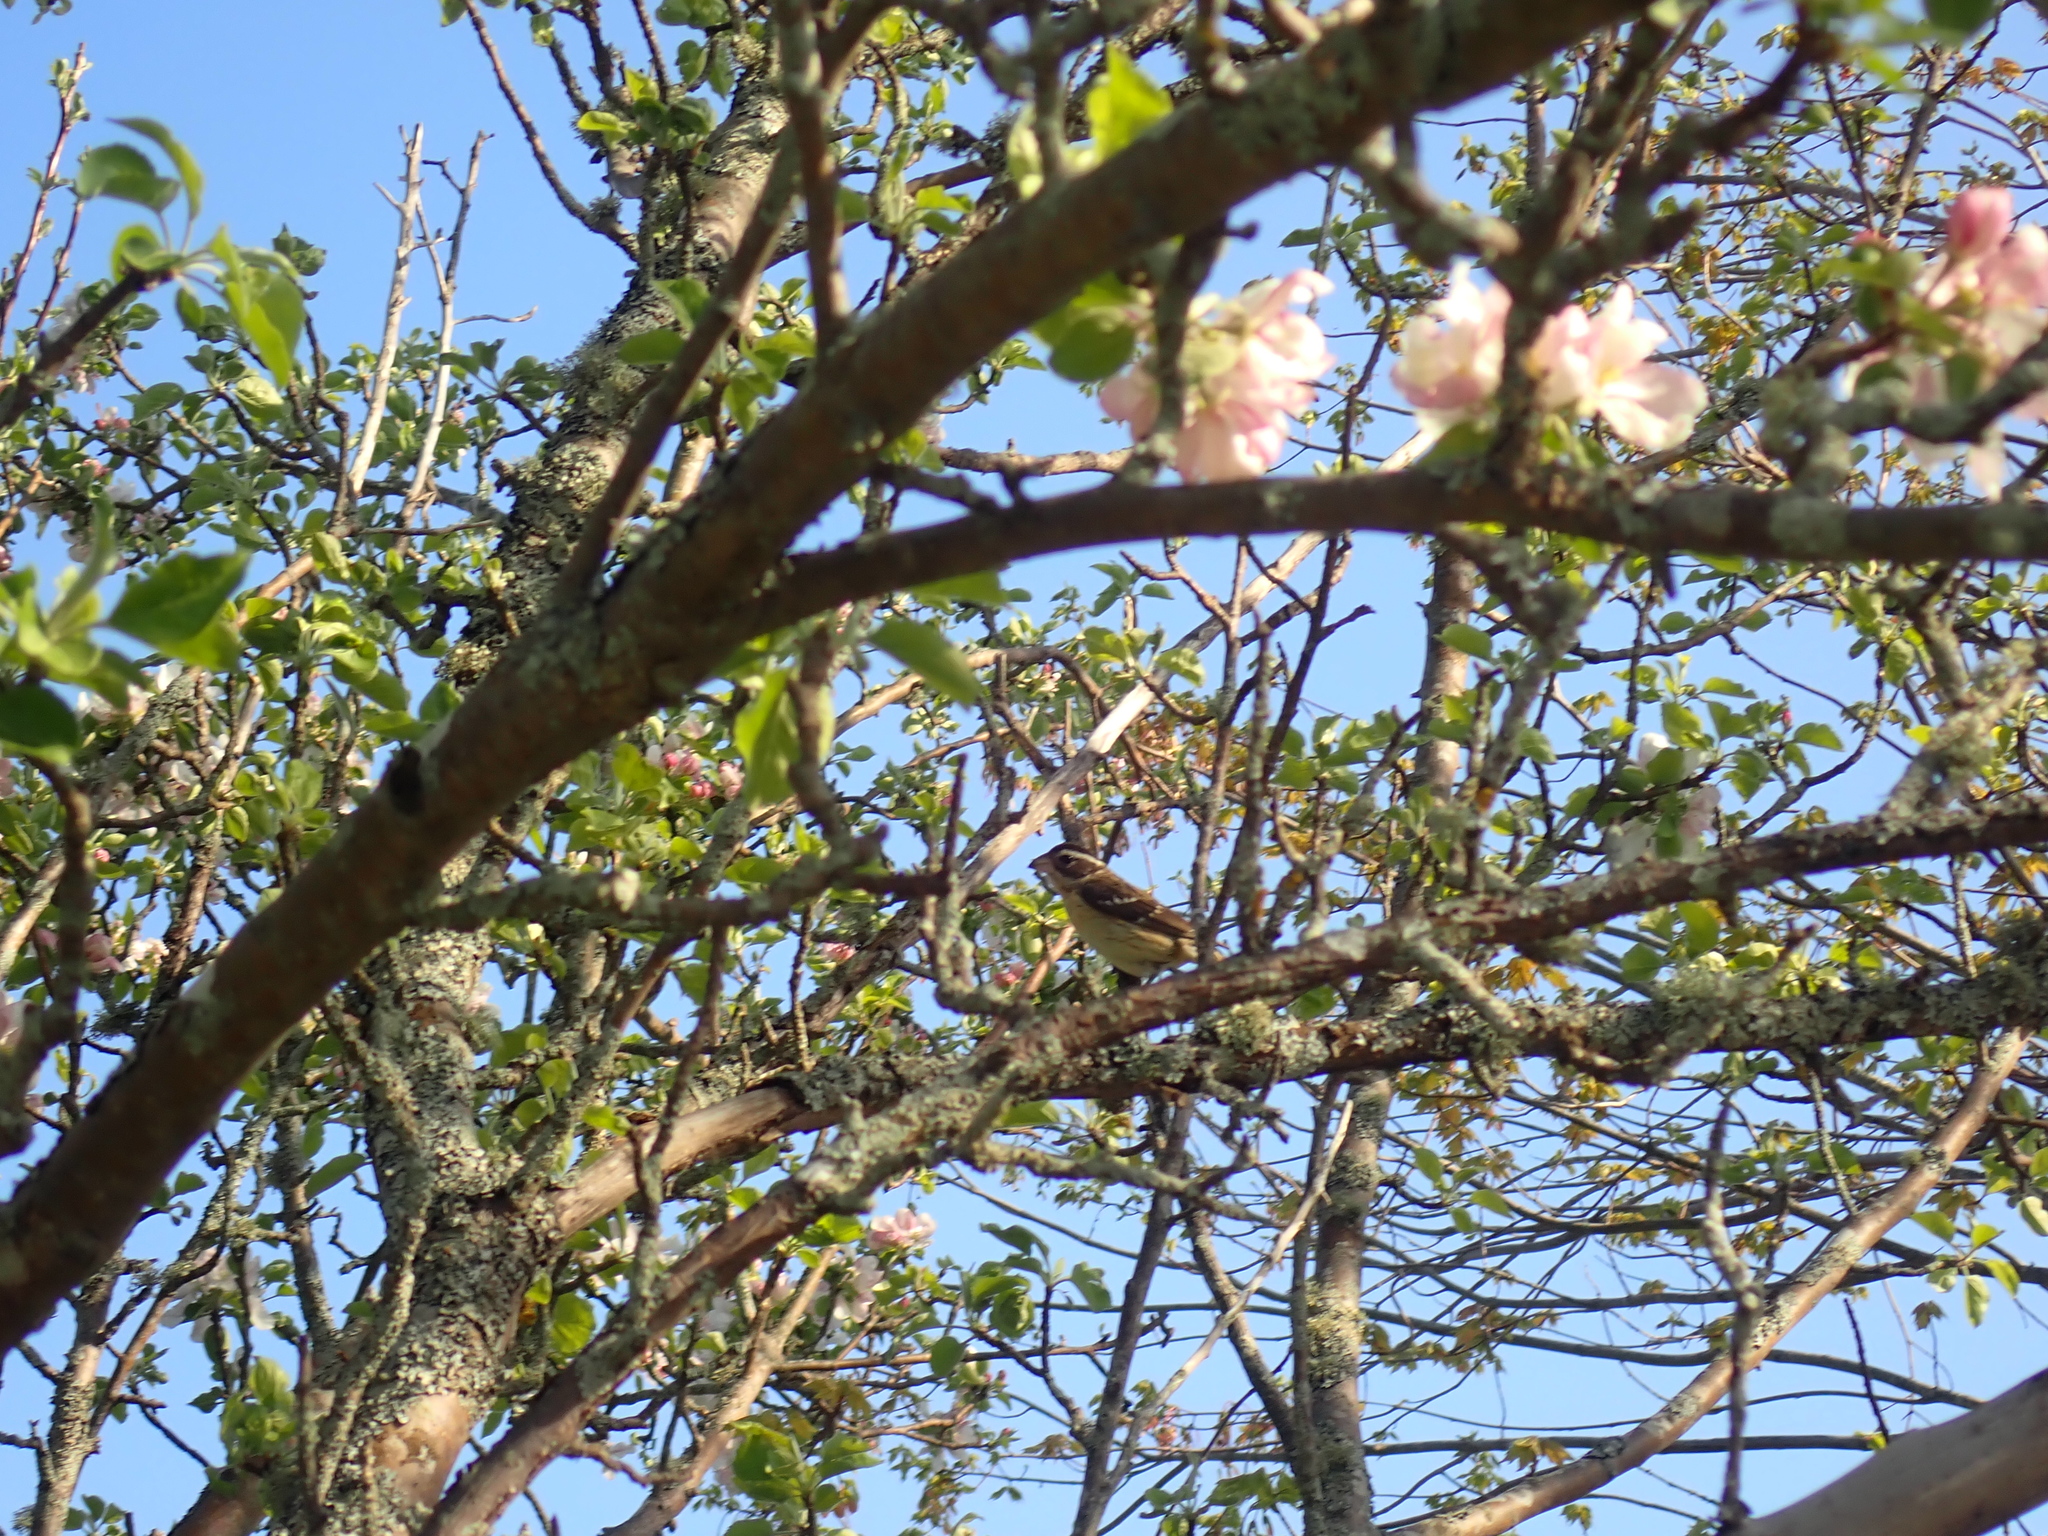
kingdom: Animalia
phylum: Chordata
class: Aves
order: Passeriformes
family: Cardinalidae
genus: Pheucticus
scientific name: Pheucticus ludovicianus
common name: Rose-breasted grosbeak
